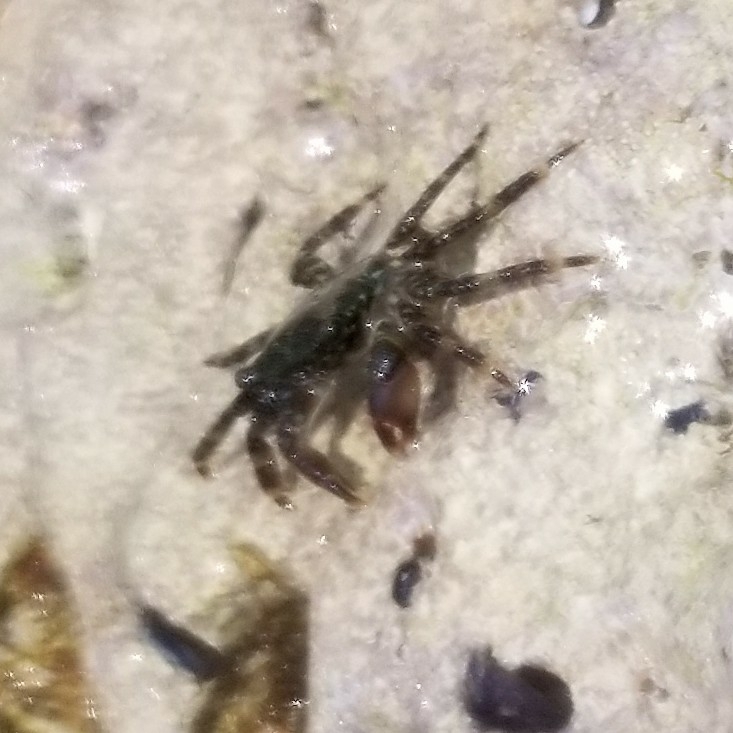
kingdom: Animalia
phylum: Arthropoda
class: Malacostraca
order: Decapoda
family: Grapsidae
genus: Pachygrapsus
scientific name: Pachygrapsus marmoratus
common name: Marbled rock crab
